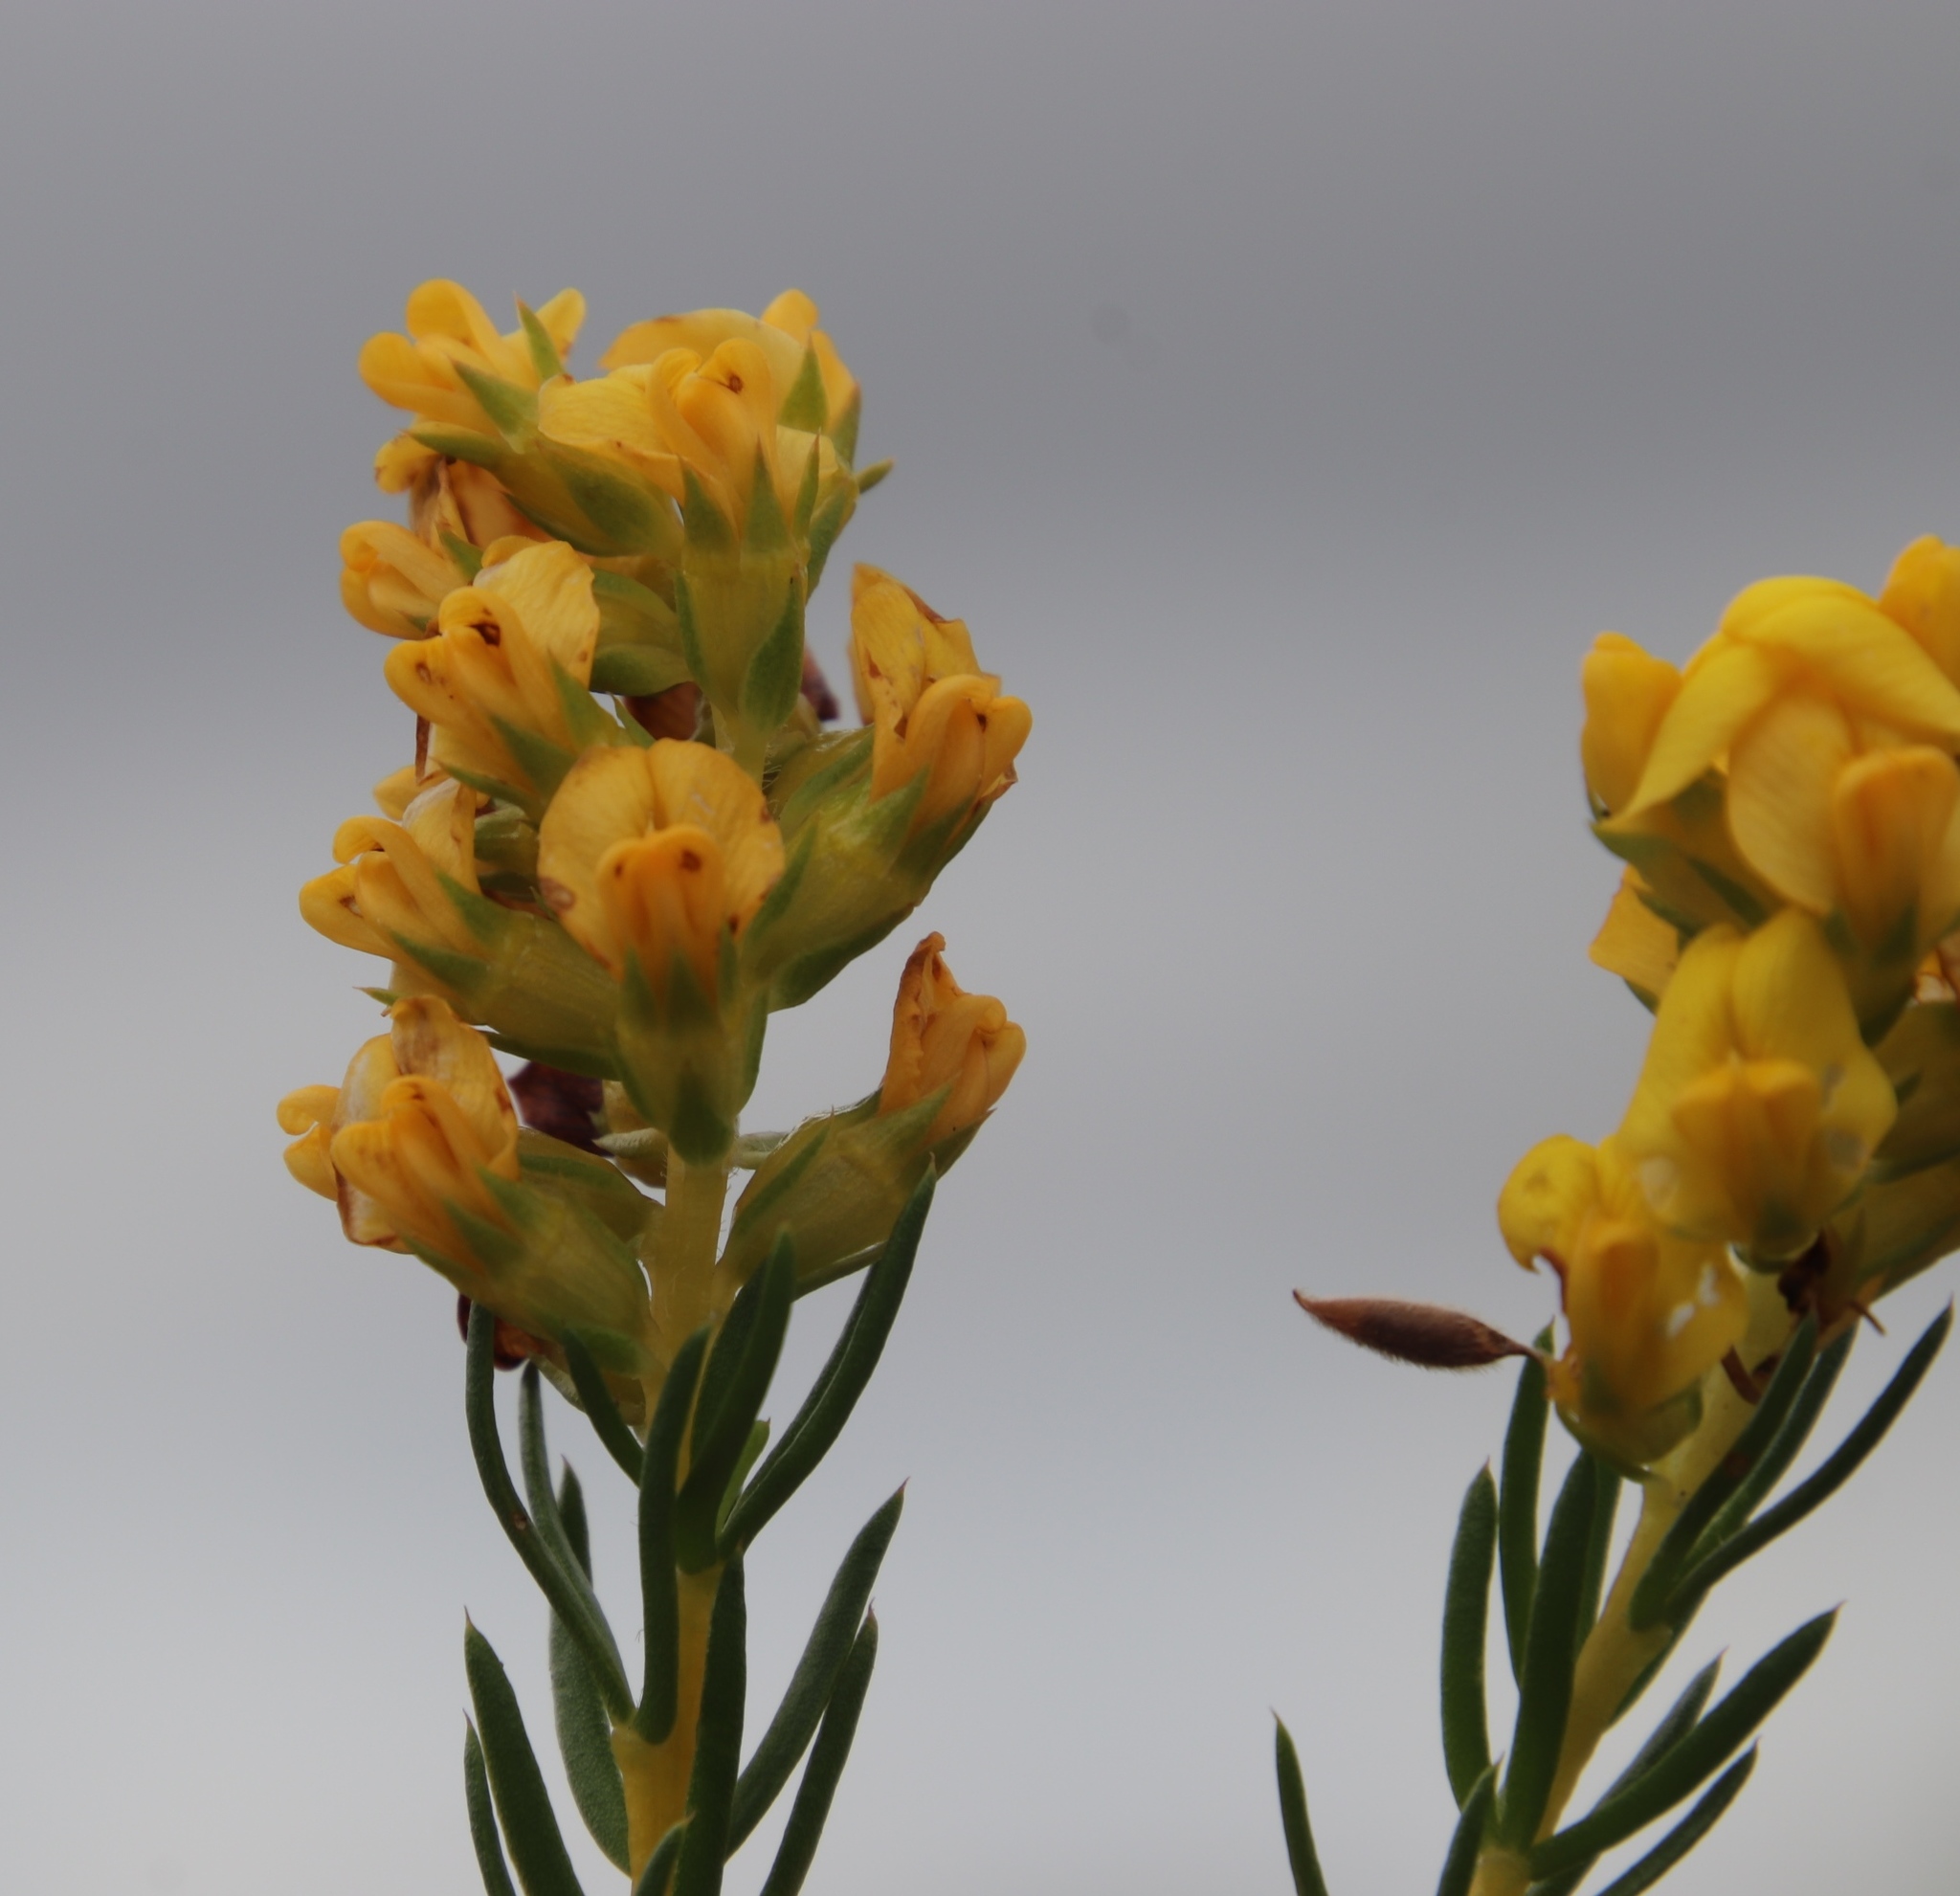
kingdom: Plantae
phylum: Tracheophyta
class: Magnoliopsida
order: Fabales
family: Fabaceae
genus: Aspalathus
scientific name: Aspalathus callosa
